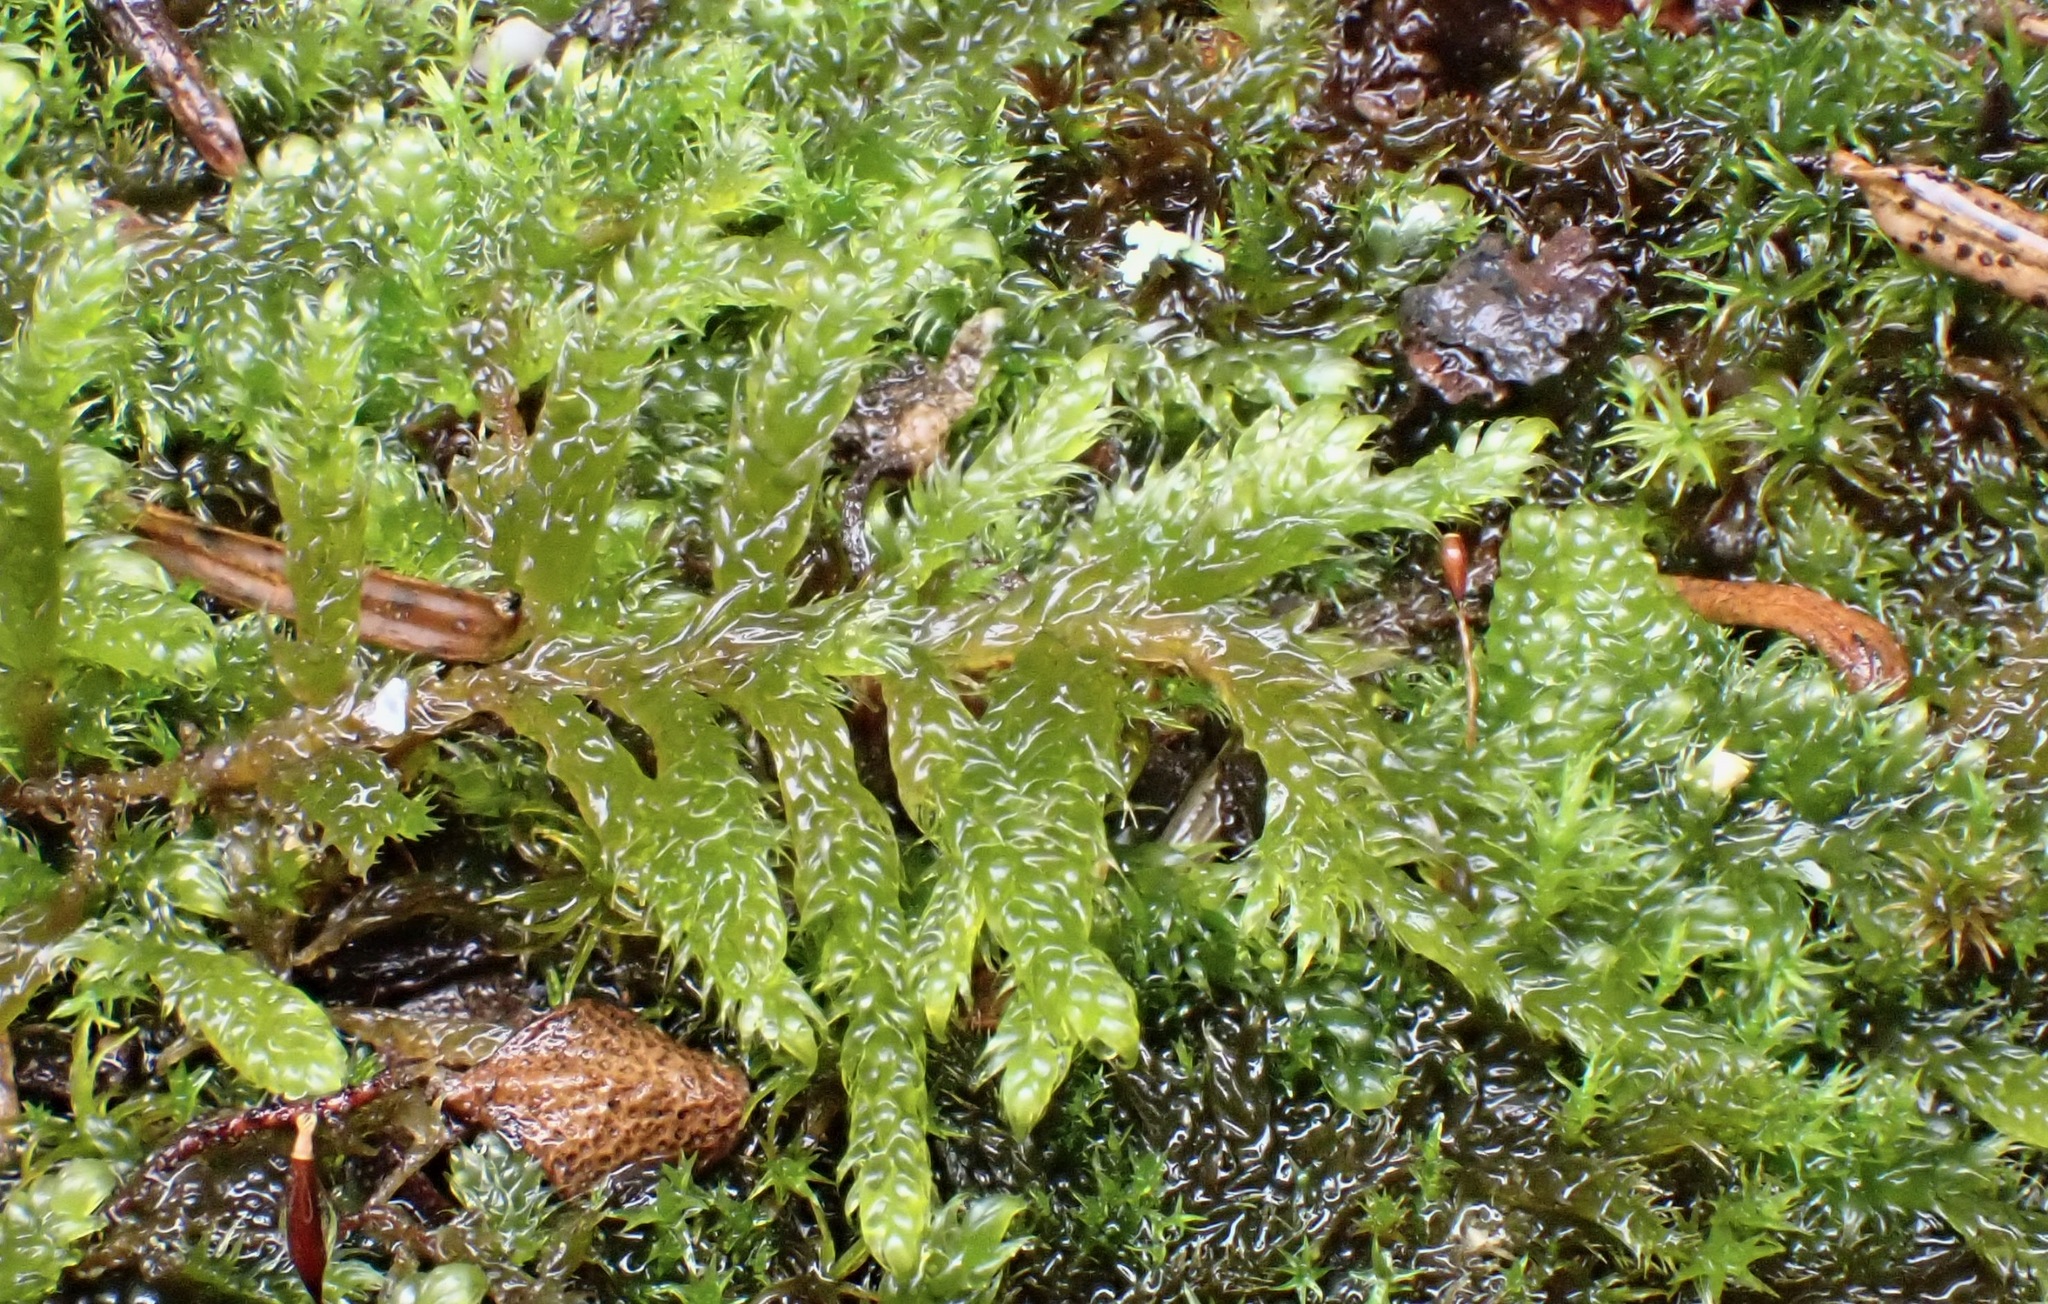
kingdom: Plantae
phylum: Bryophyta
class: Bryopsida
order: Hypnales
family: Hypnaceae
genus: Hypnum
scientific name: Hypnum cupressiforme
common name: Cypress-leaved plait-moss
